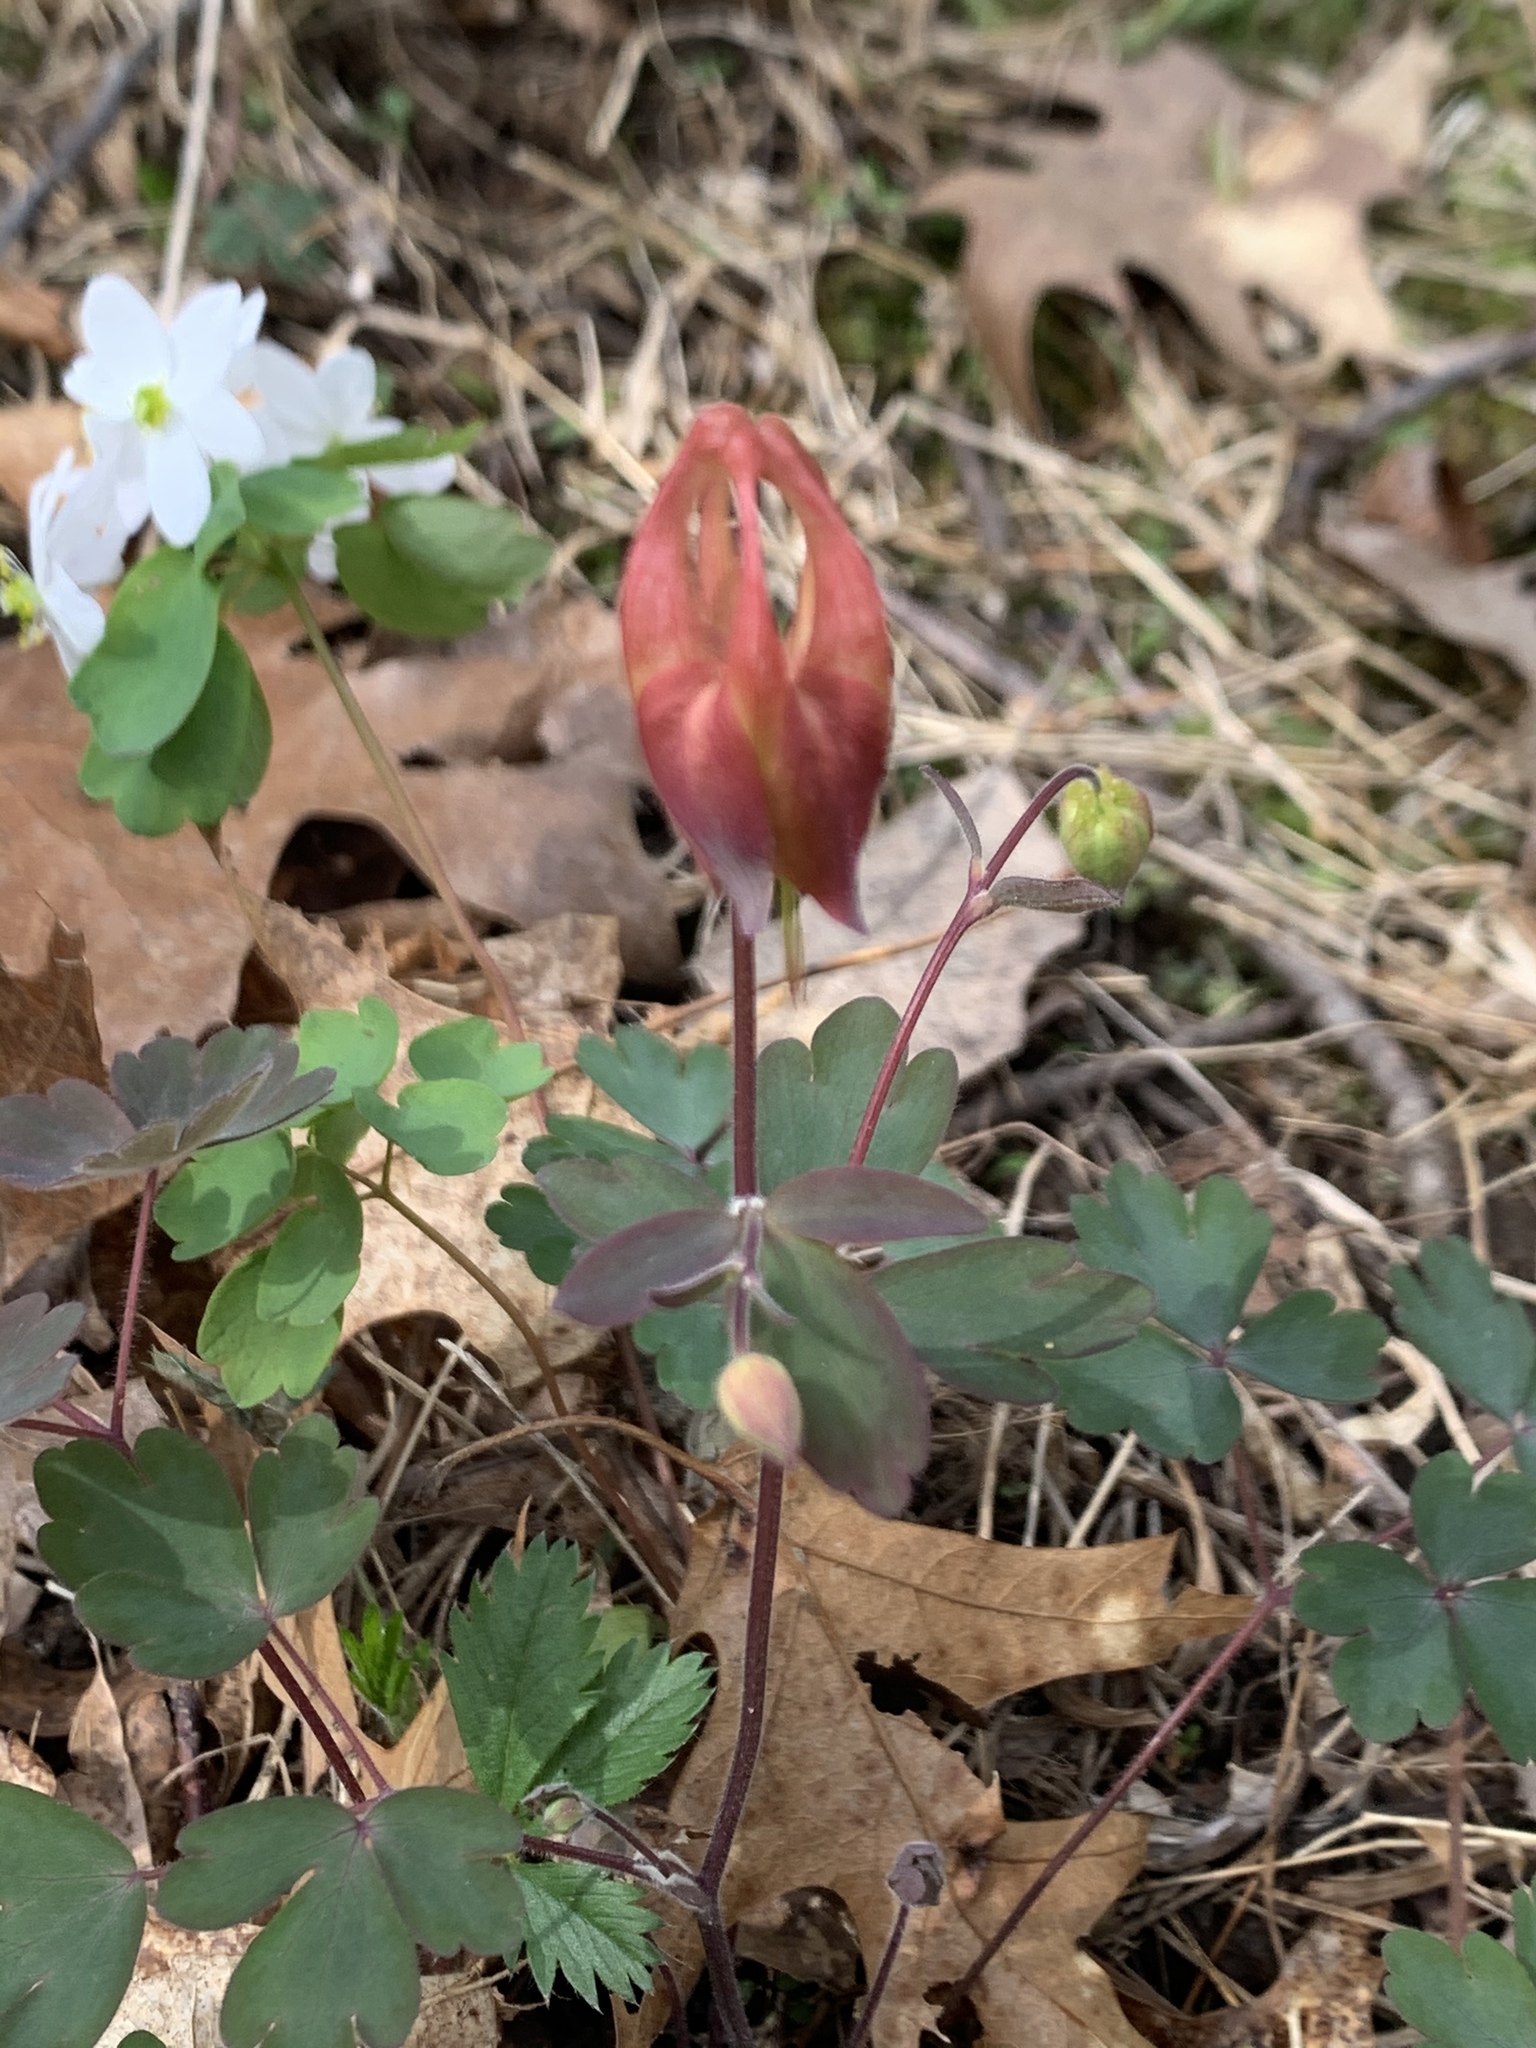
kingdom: Plantae
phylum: Tracheophyta
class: Magnoliopsida
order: Ranunculales
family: Ranunculaceae
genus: Aquilegia
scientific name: Aquilegia canadensis
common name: American columbine
